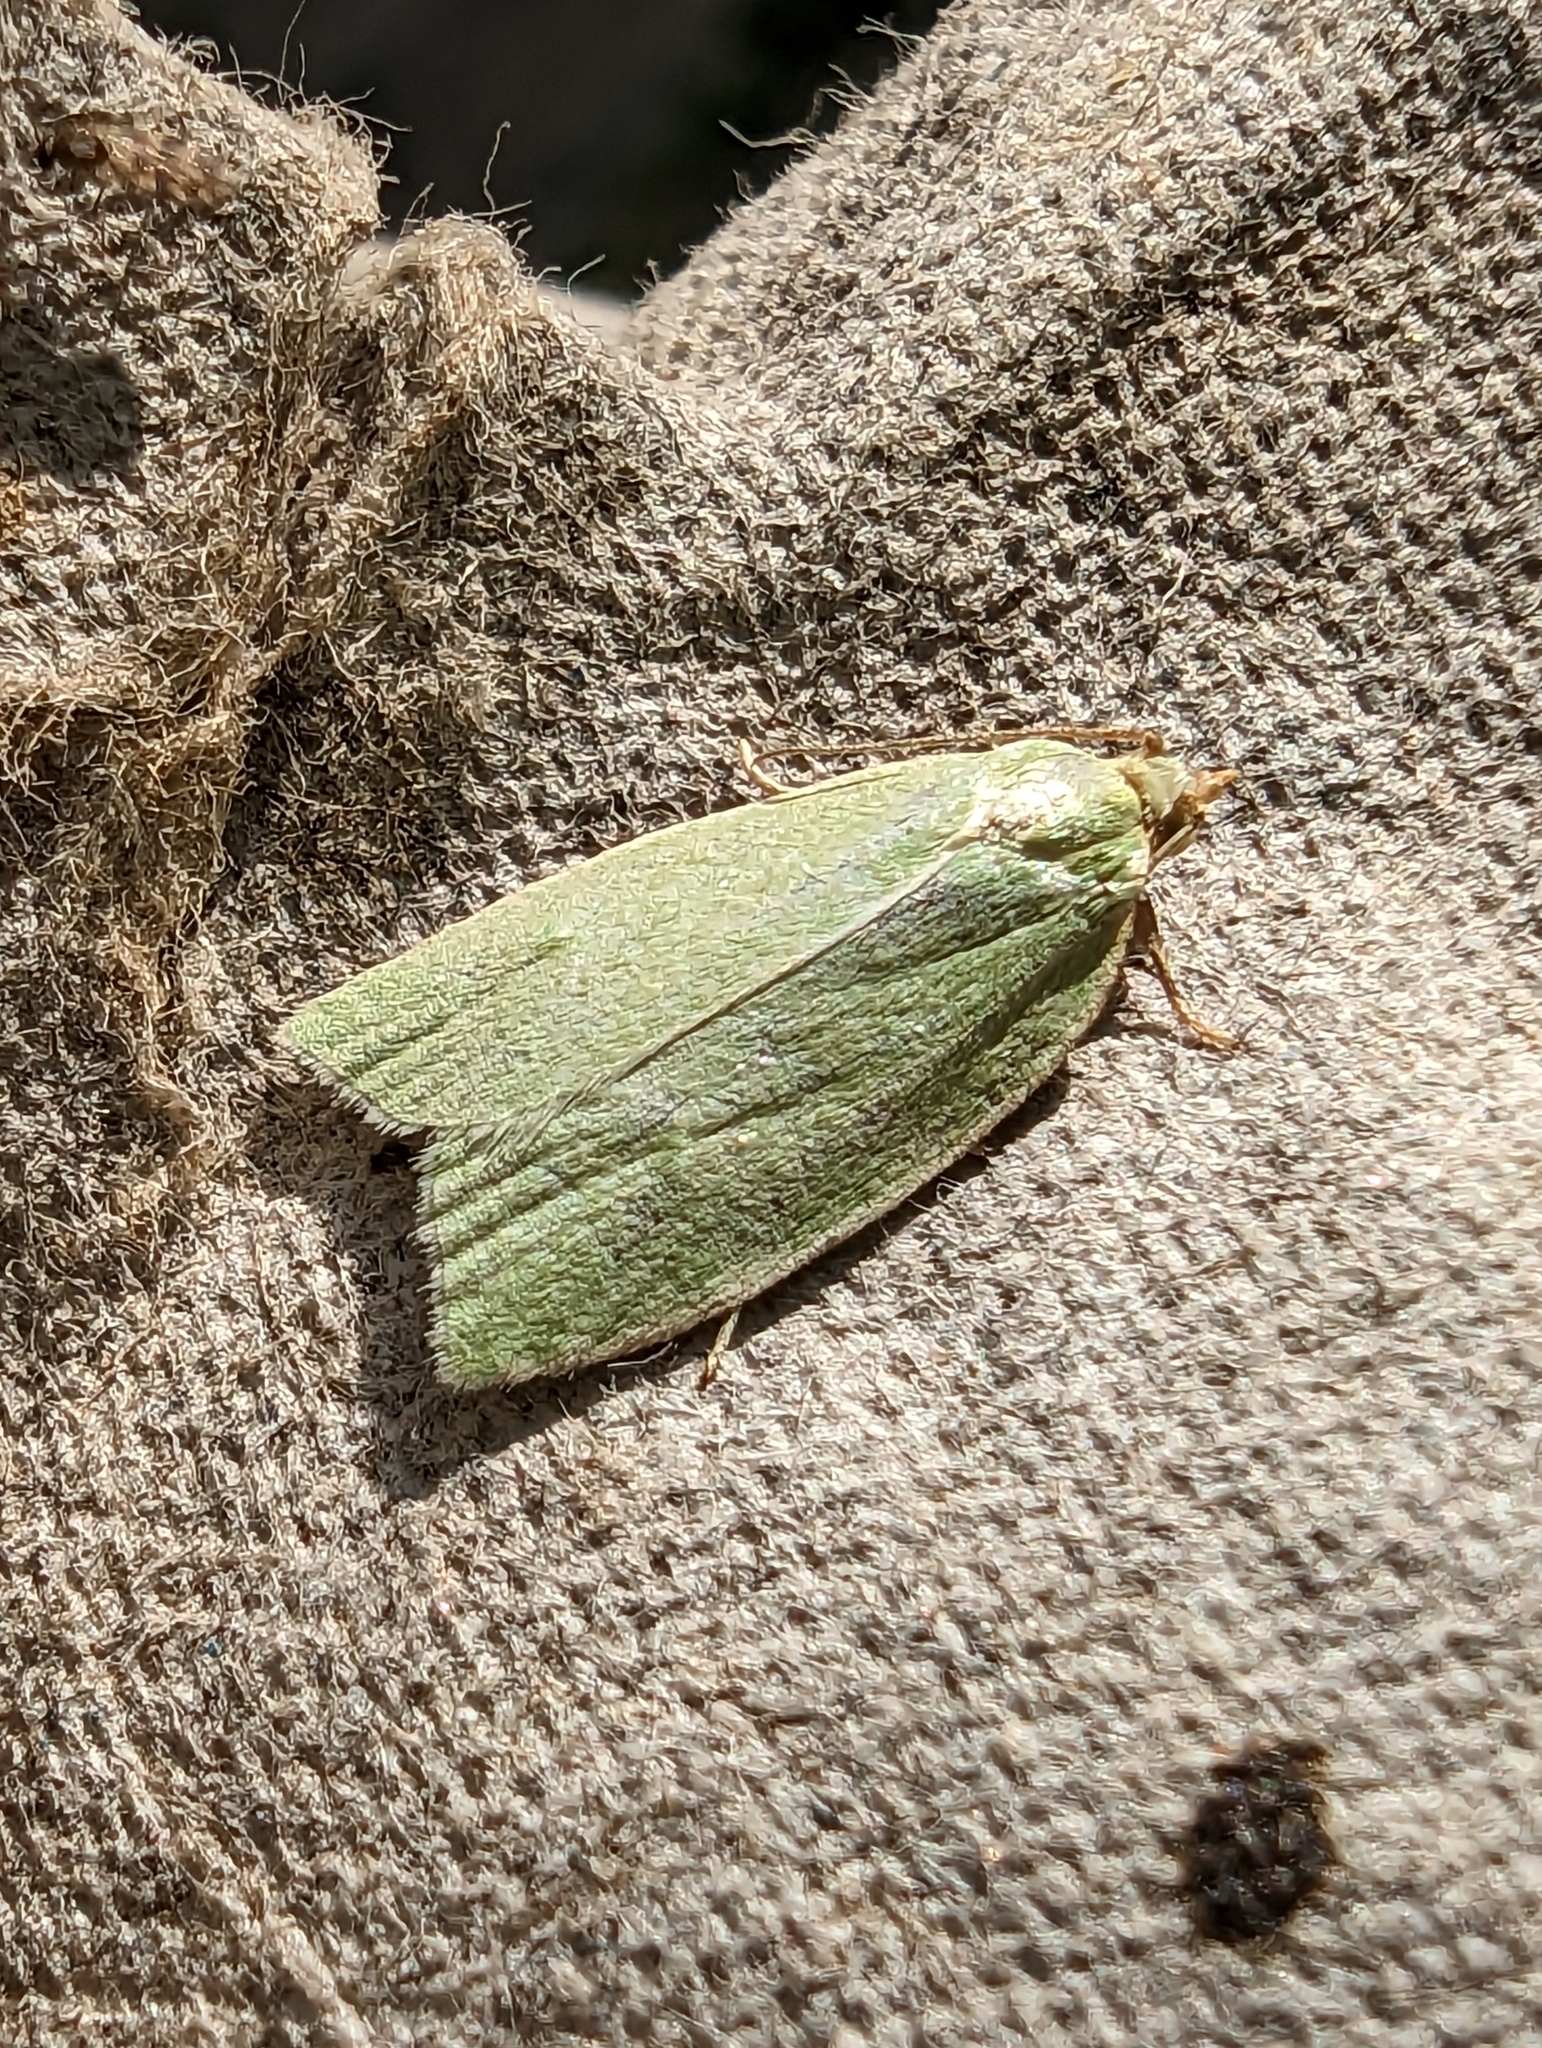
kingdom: Animalia
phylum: Arthropoda
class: Insecta
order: Lepidoptera
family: Tortricidae
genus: Tortrix
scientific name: Tortrix viridana
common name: Green oak tortrix
